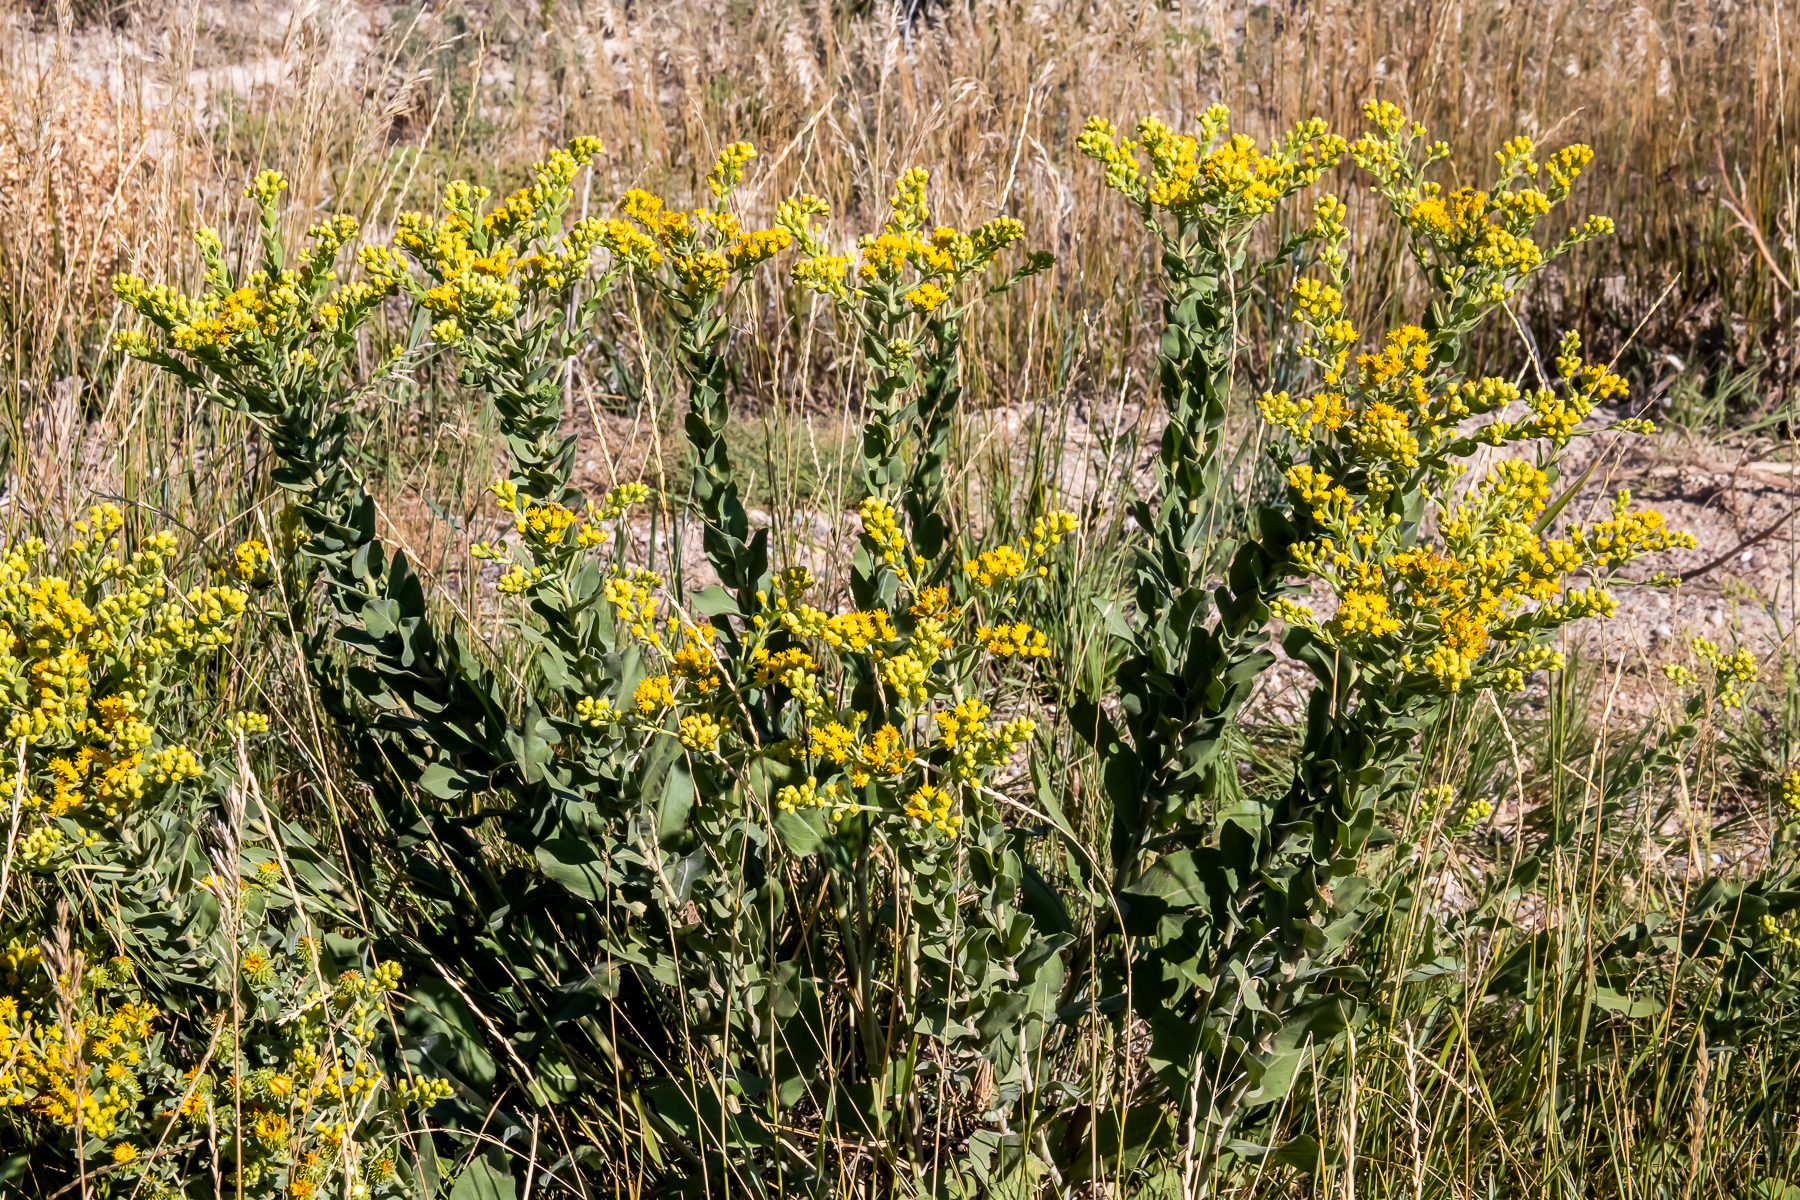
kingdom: Plantae
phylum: Tracheophyta
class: Magnoliopsida
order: Asterales
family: Asteraceae
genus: Solidago
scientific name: Solidago rigida
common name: Rigid goldenrod
